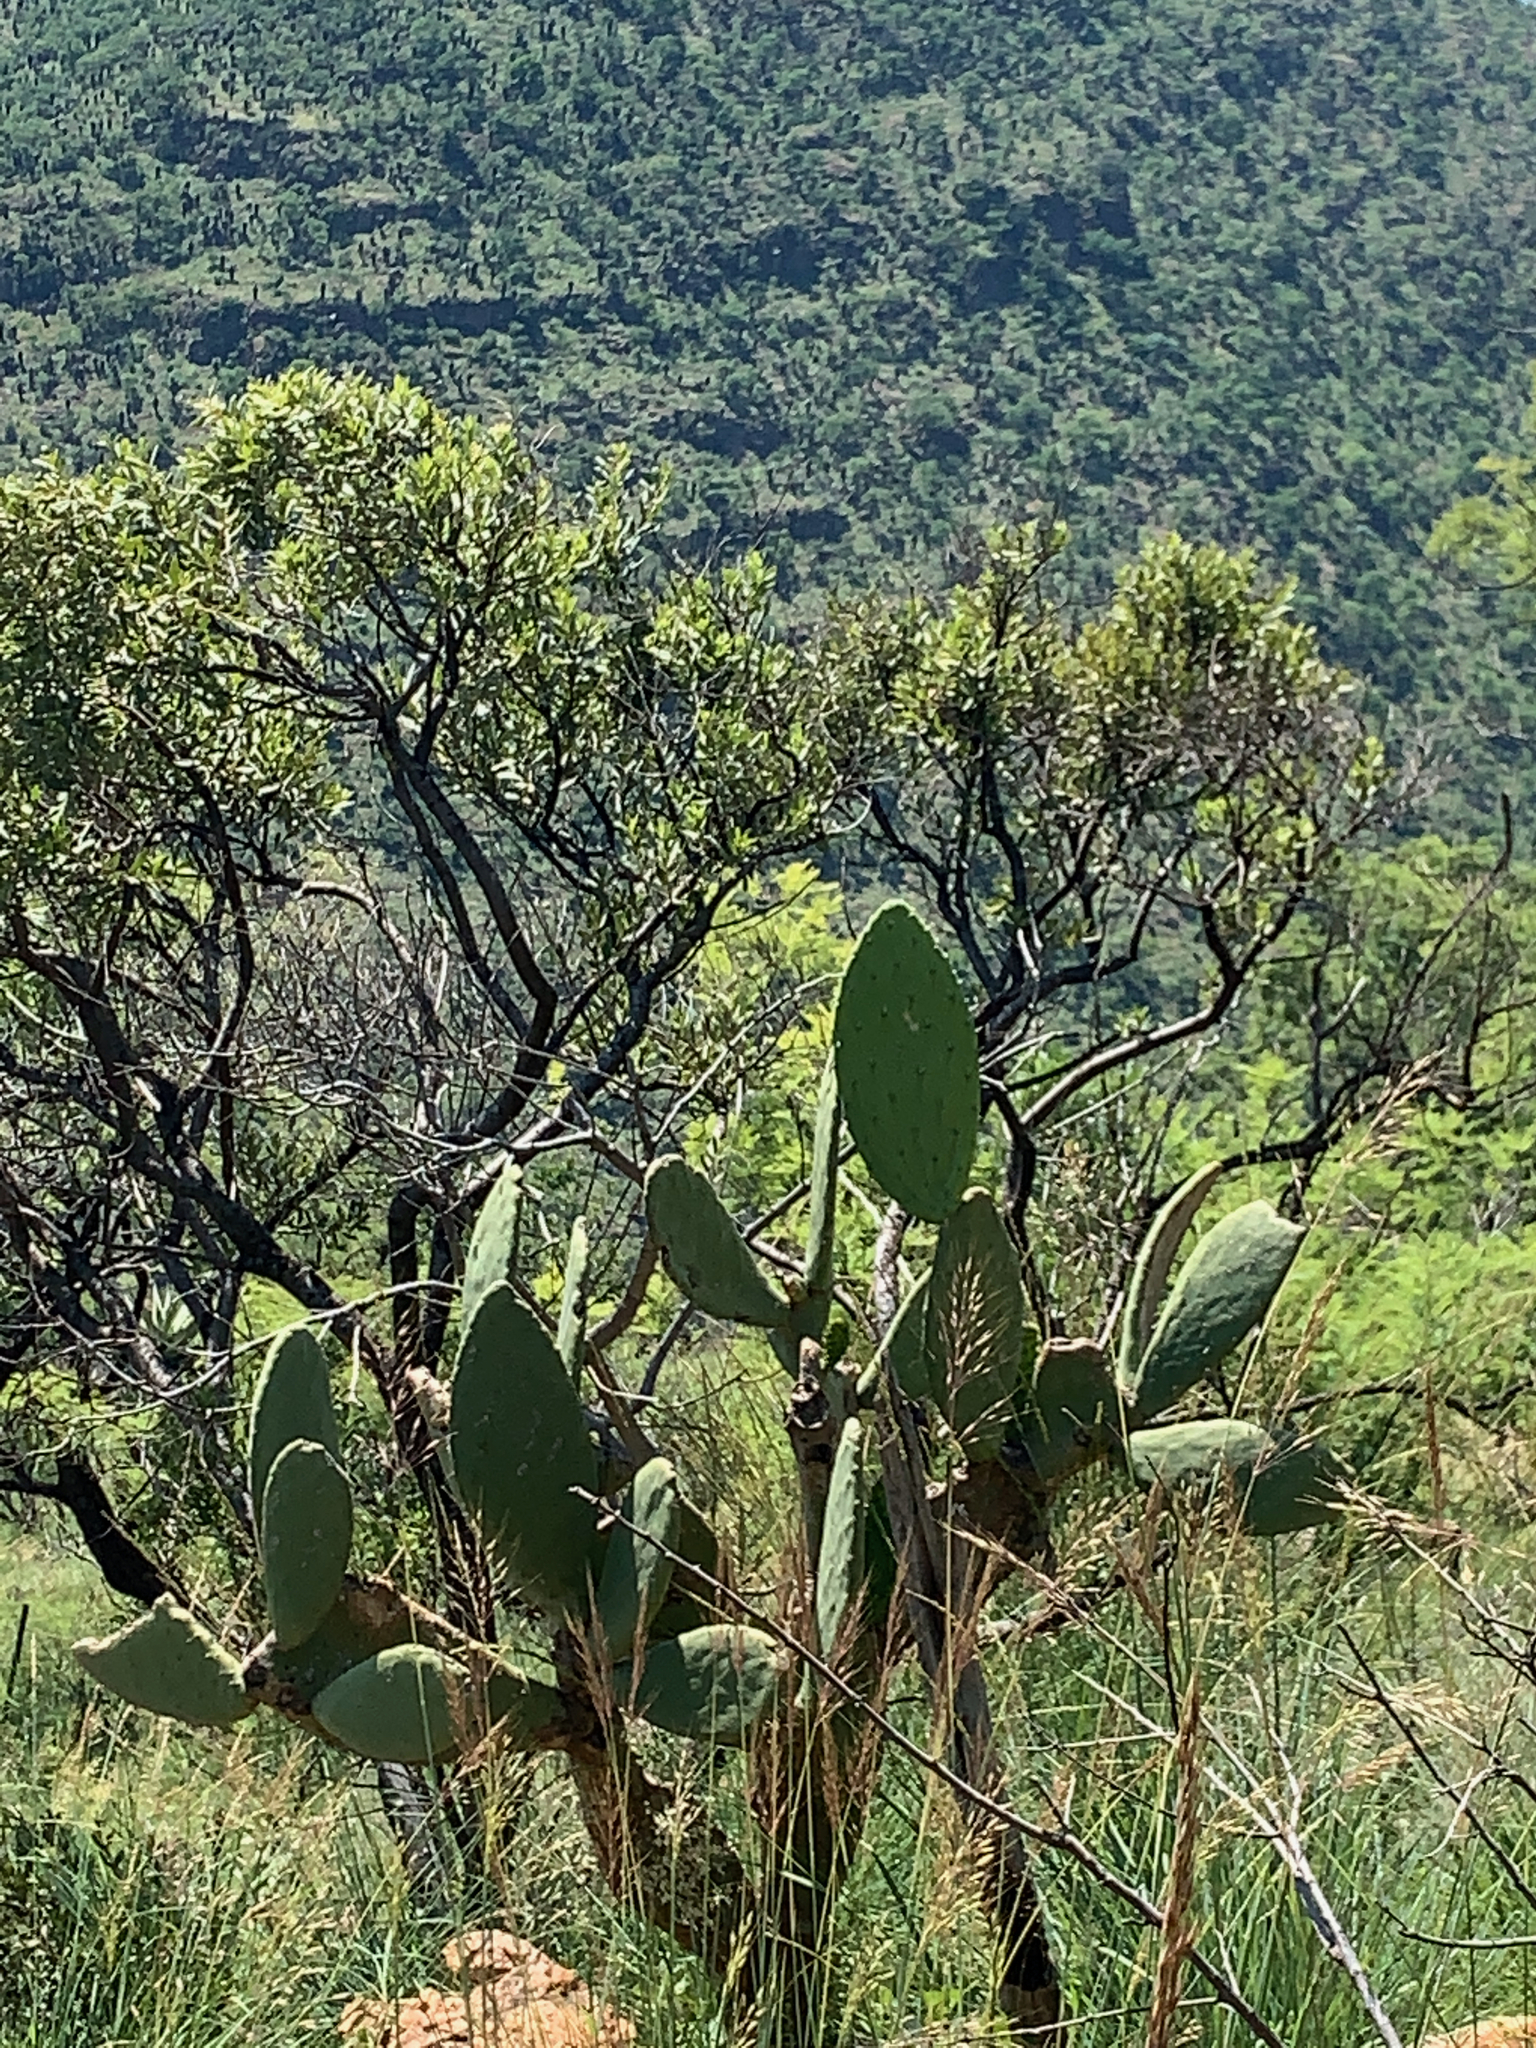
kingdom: Plantae
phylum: Tracheophyta
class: Magnoliopsida
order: Caryophyllales
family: Cactaceae
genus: Opuntia
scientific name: Opuntia ficus-indica
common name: Barbary fig
